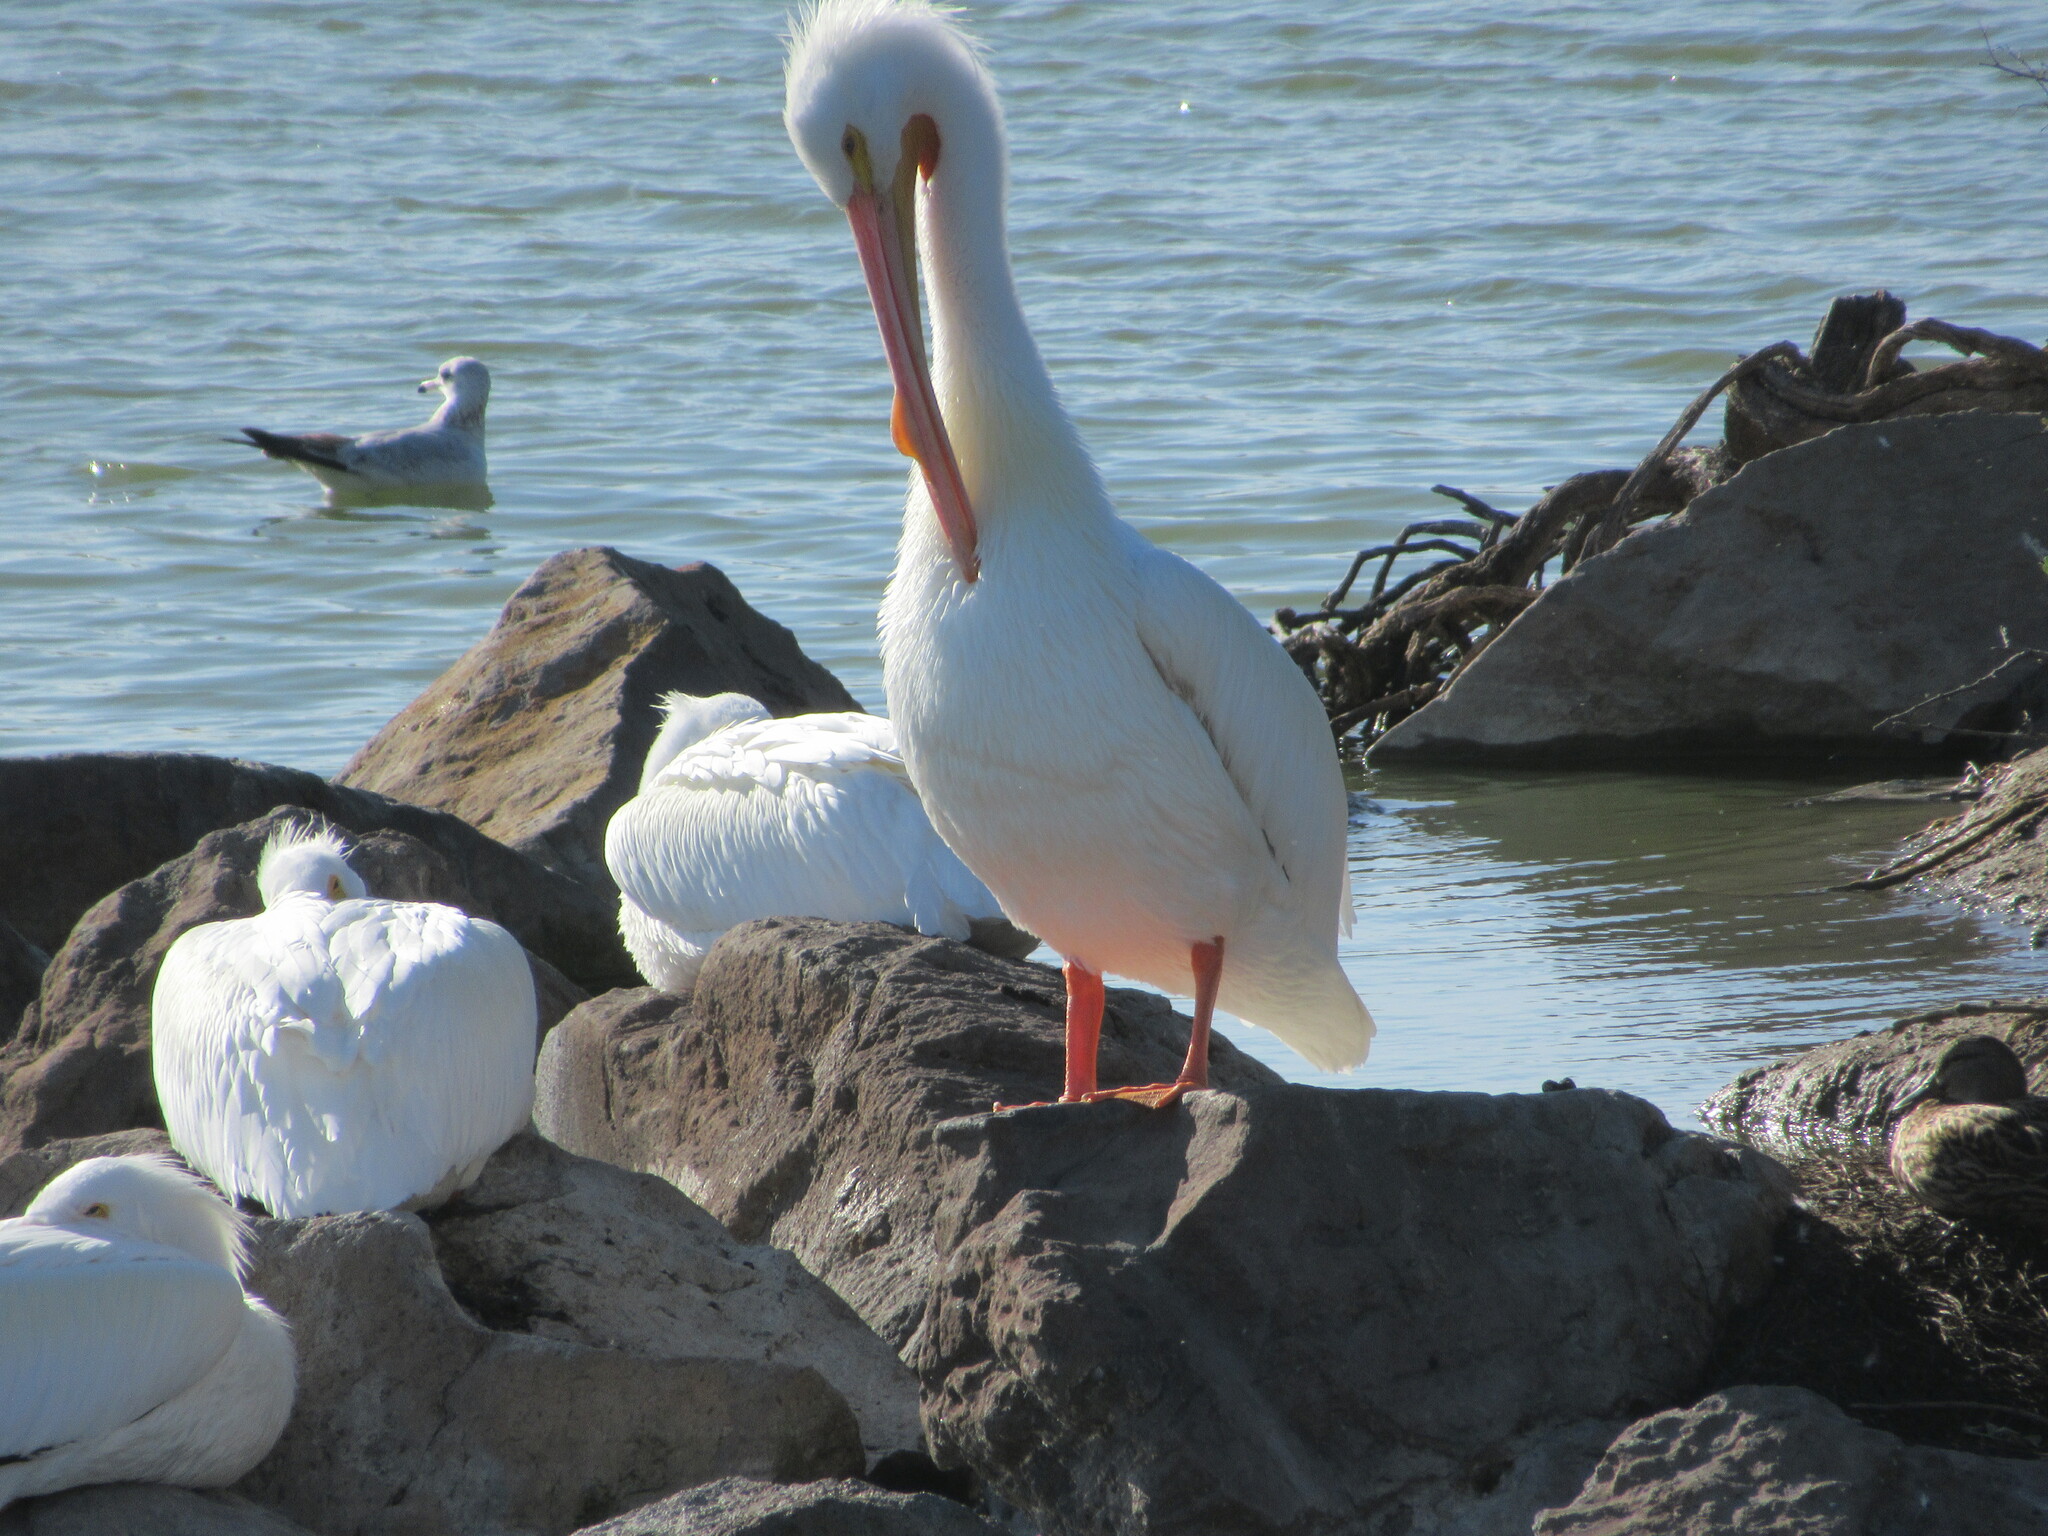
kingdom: Animalia
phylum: Chordata
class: Aves
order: Pelecaniformes
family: Pelecanidae
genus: Pelecanus
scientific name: Pelecanus erythrorhynchos
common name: American white pelican
